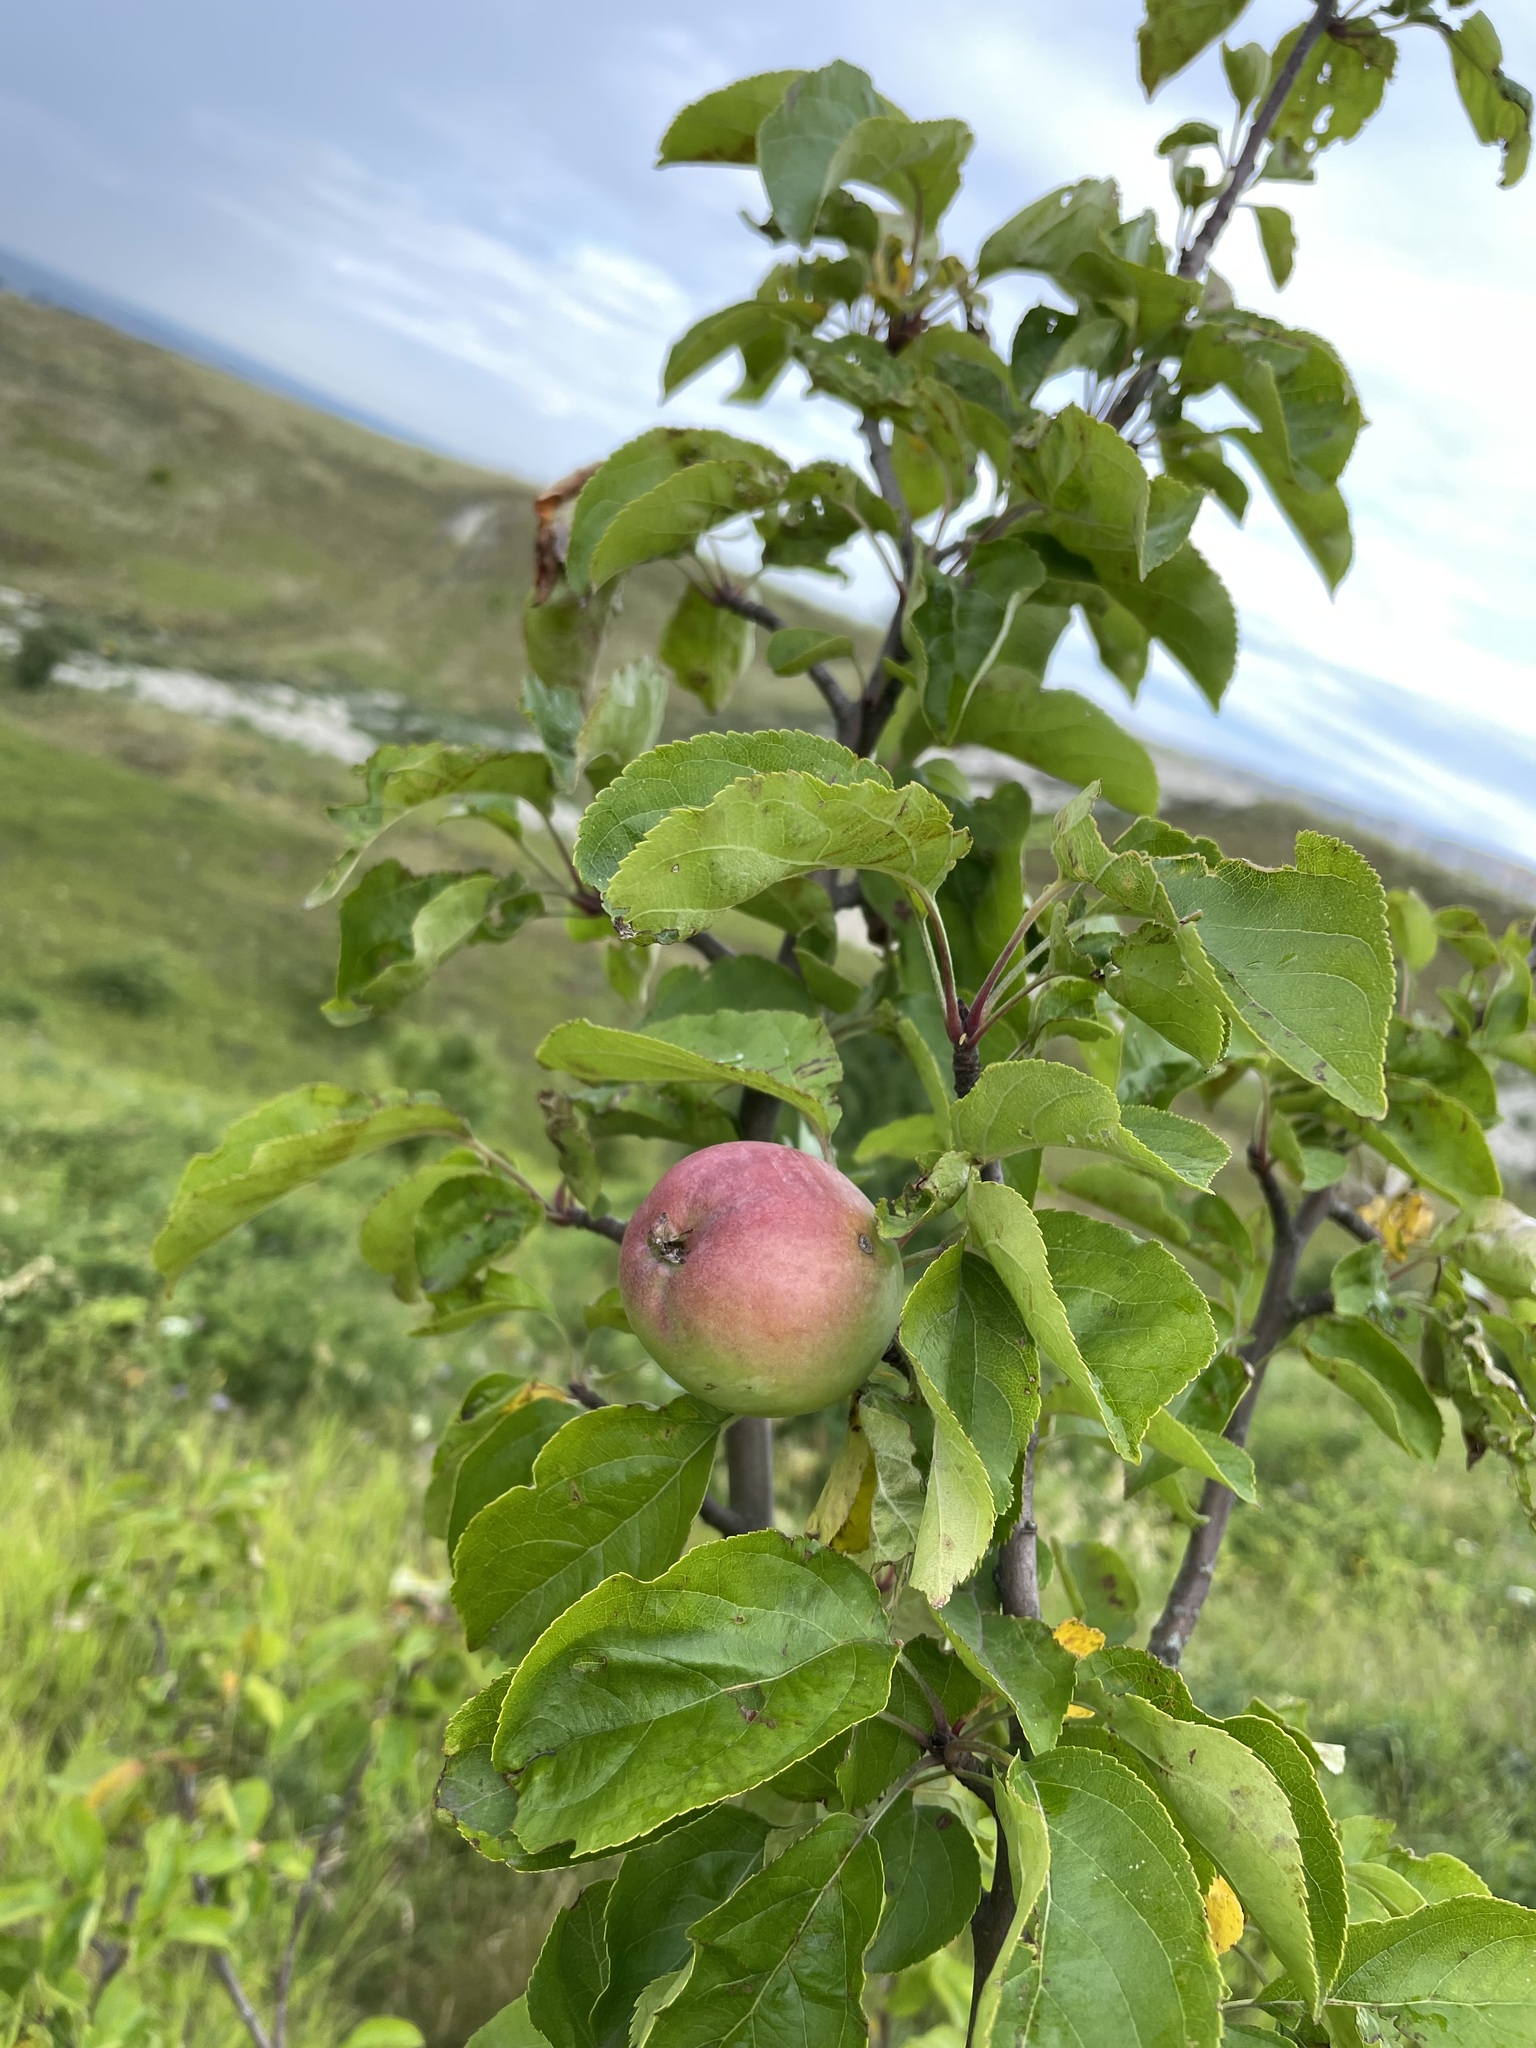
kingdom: Plantae
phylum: Tracheophyta
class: Magnoliopsida
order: Rosales
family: Rosaceae
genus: Malus
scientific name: Malus domestica
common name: Apple
